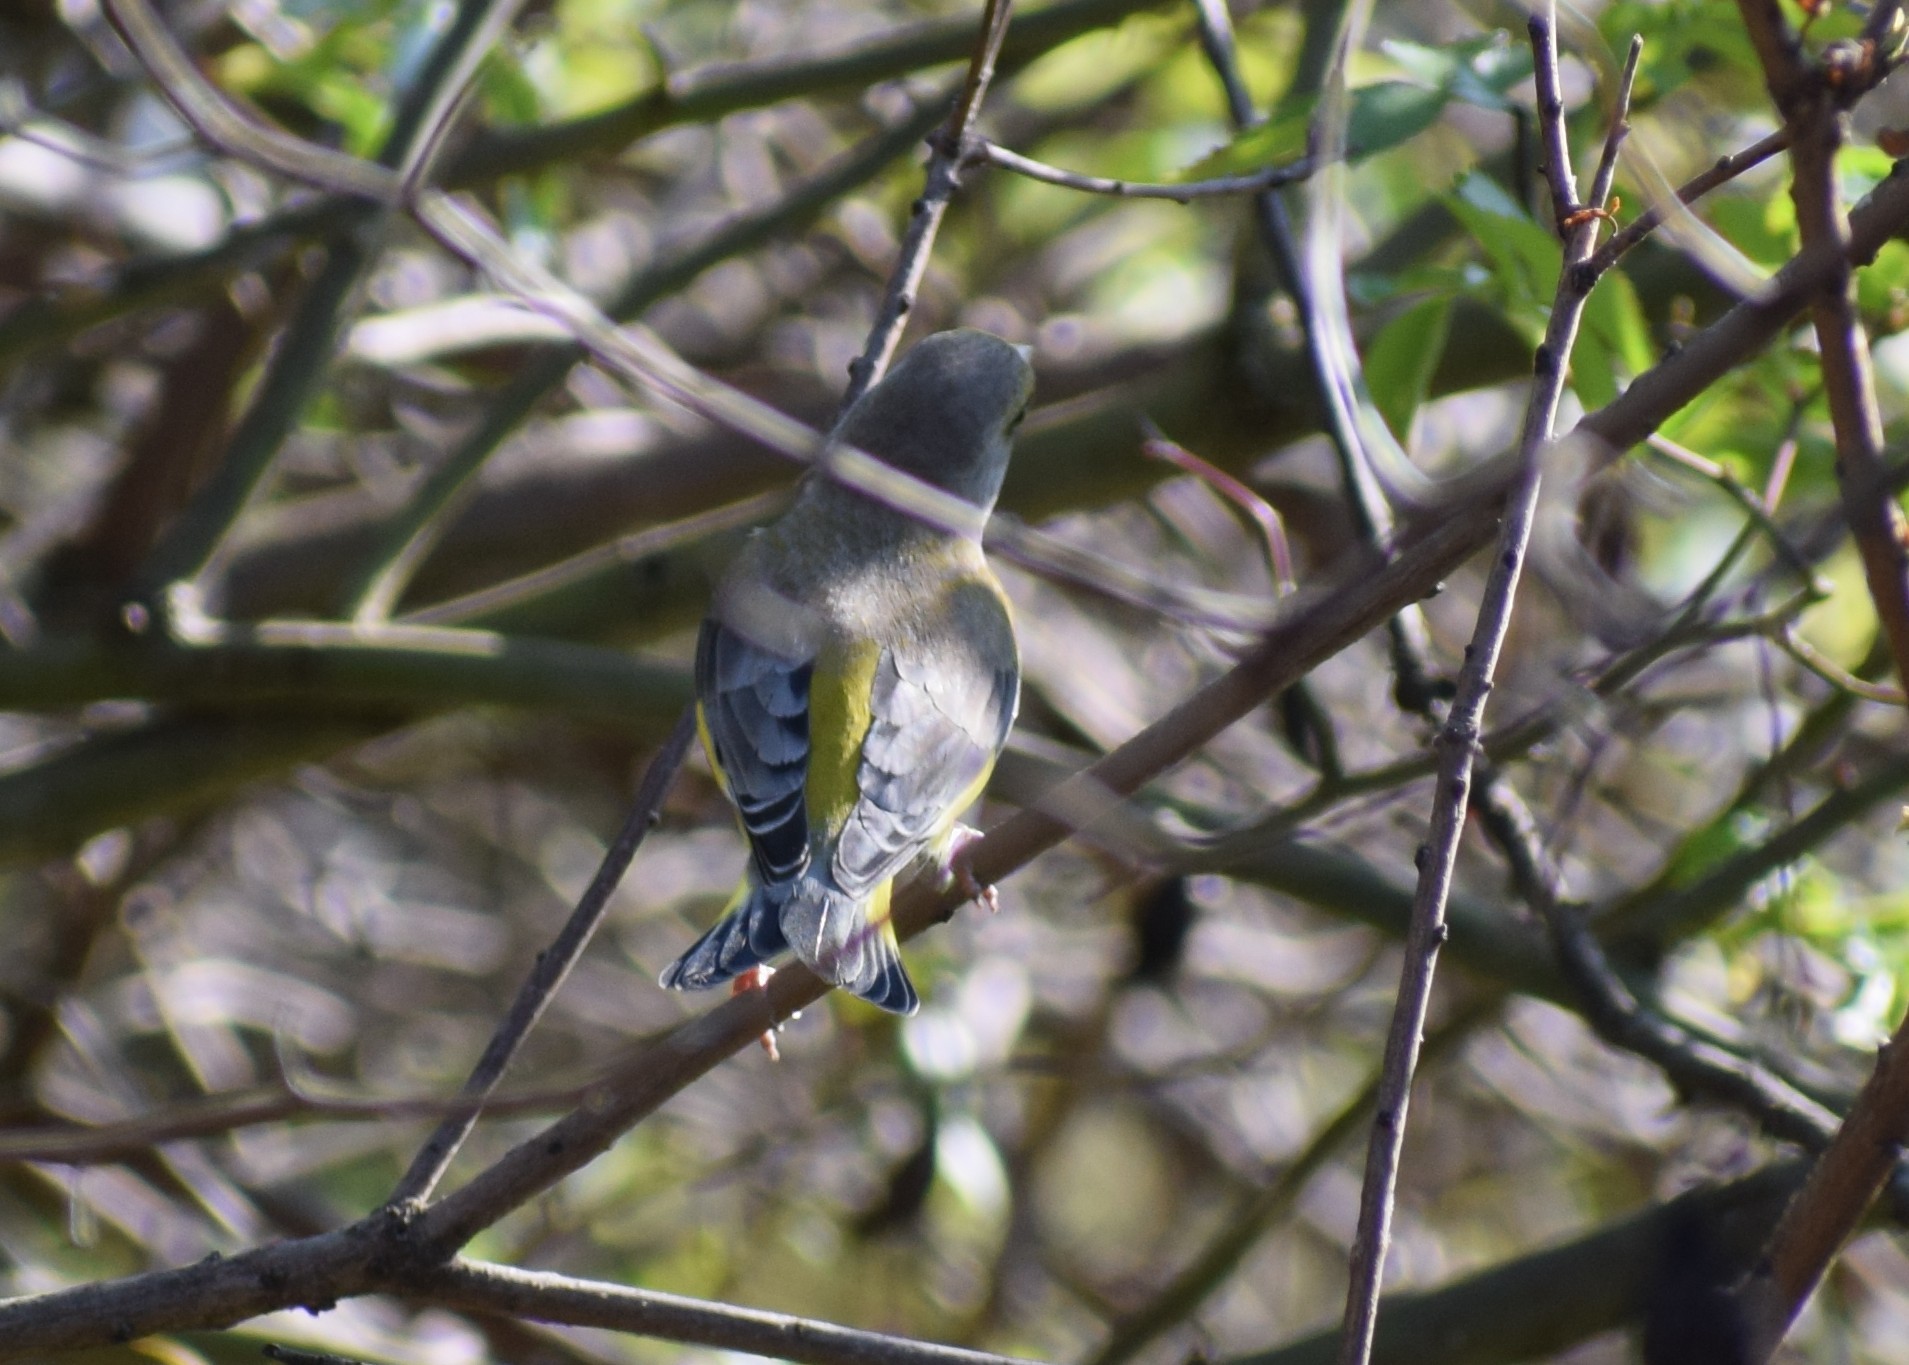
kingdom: Plantae
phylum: Tracheophyta
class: Liliopsida
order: Poales
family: Poaceae
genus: Chloris
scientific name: Chloris chloris
